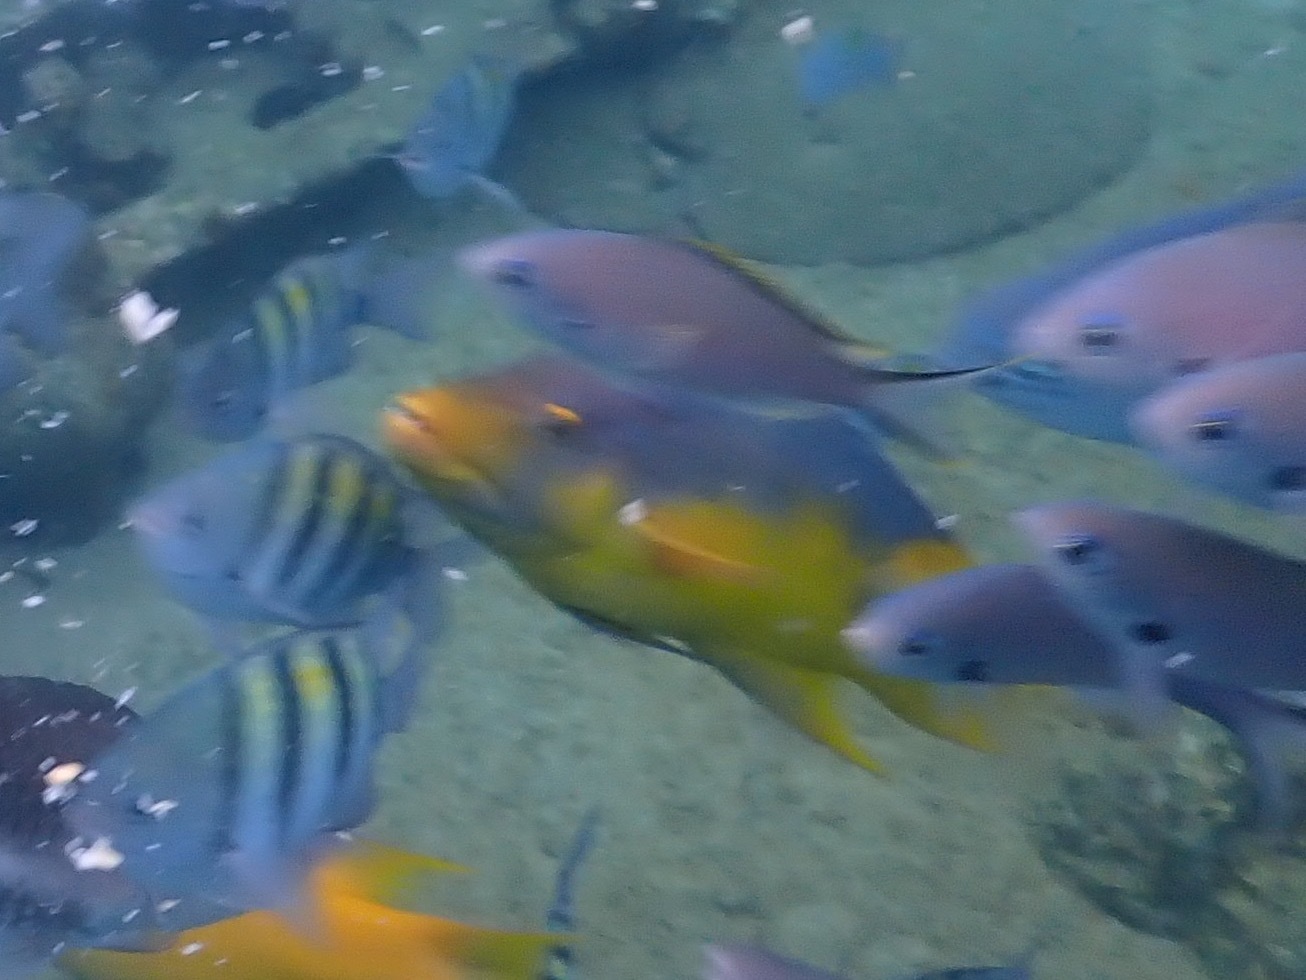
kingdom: Animalia
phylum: Chordata
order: Perciformes
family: Labridae
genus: Bodianus
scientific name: Bodianus rufus
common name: Spanish hogfish
